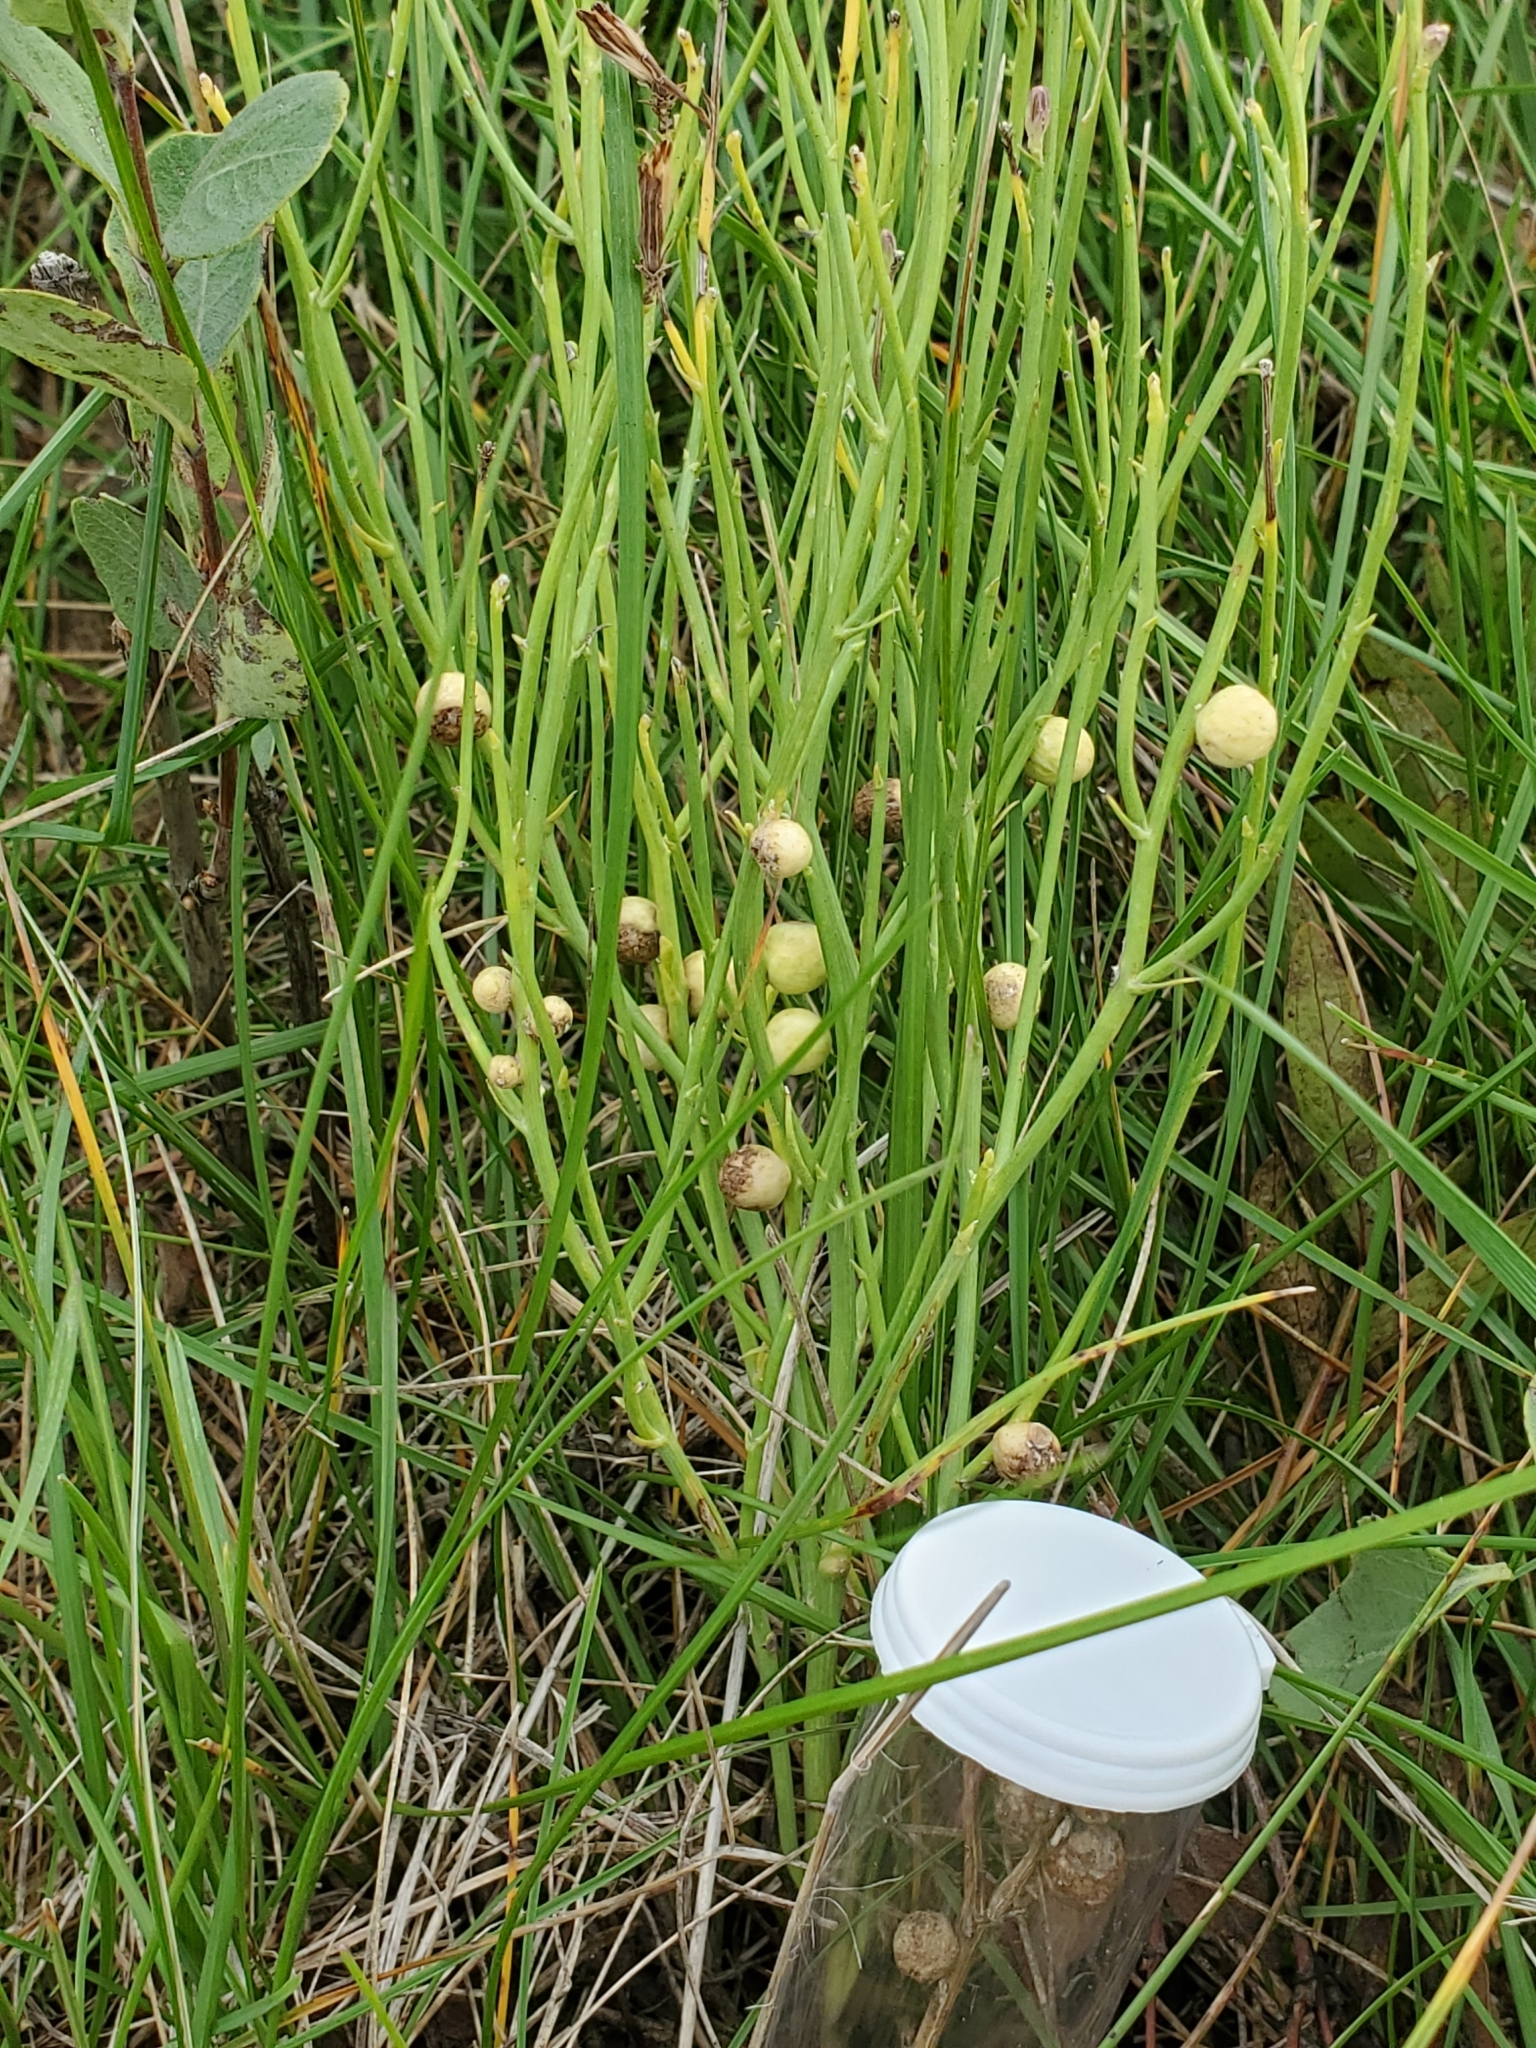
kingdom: Animalia
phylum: Arthropoda
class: Insecta
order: Hymenoptera
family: Cynipidae
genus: Antistrophus
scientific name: Antistrophus
